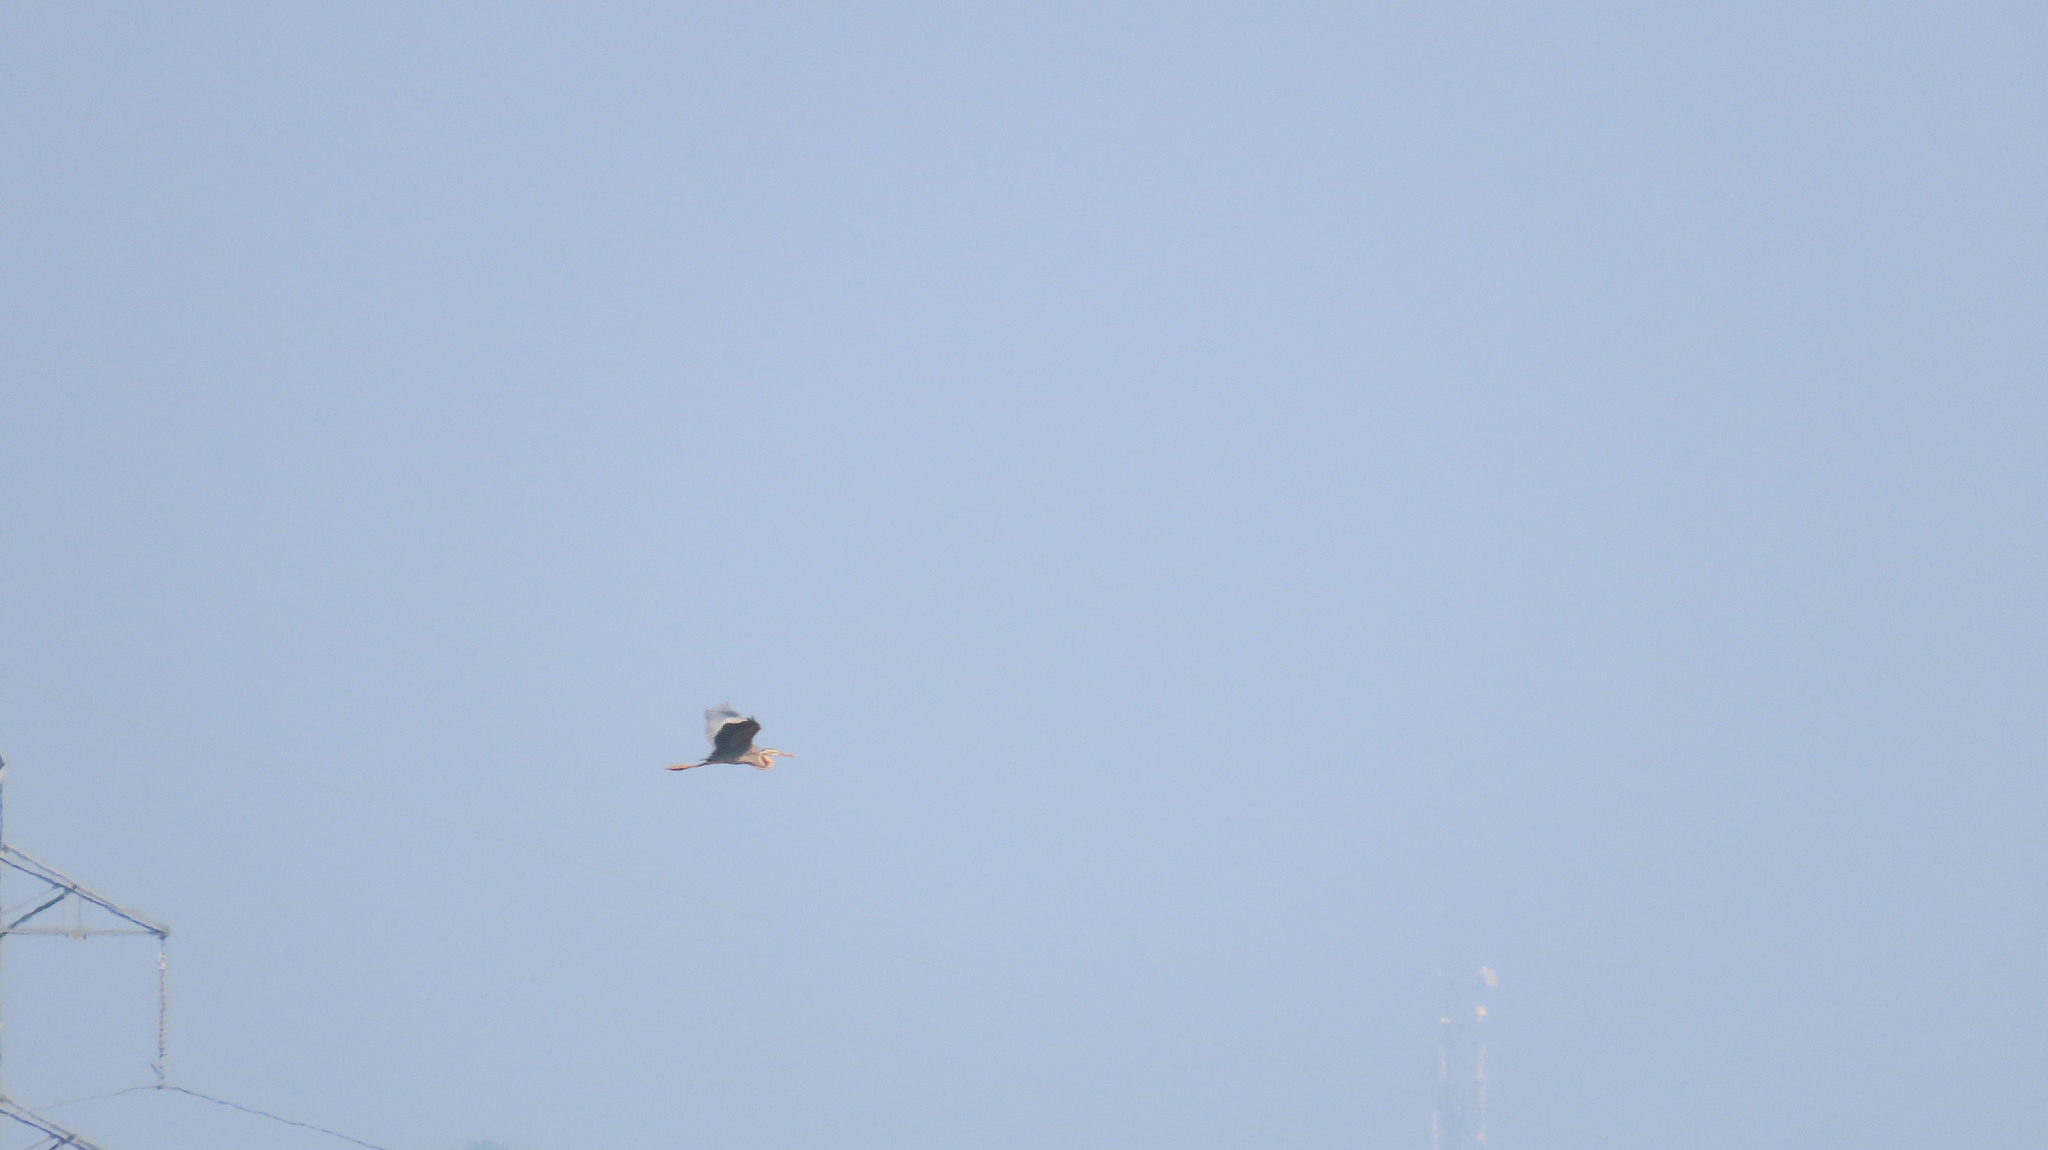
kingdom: Animalia
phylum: Chordata
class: Aves
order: Pelecaniformes
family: Ardeidae
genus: Ardea
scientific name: Ardea purpurea
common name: Purple heron
